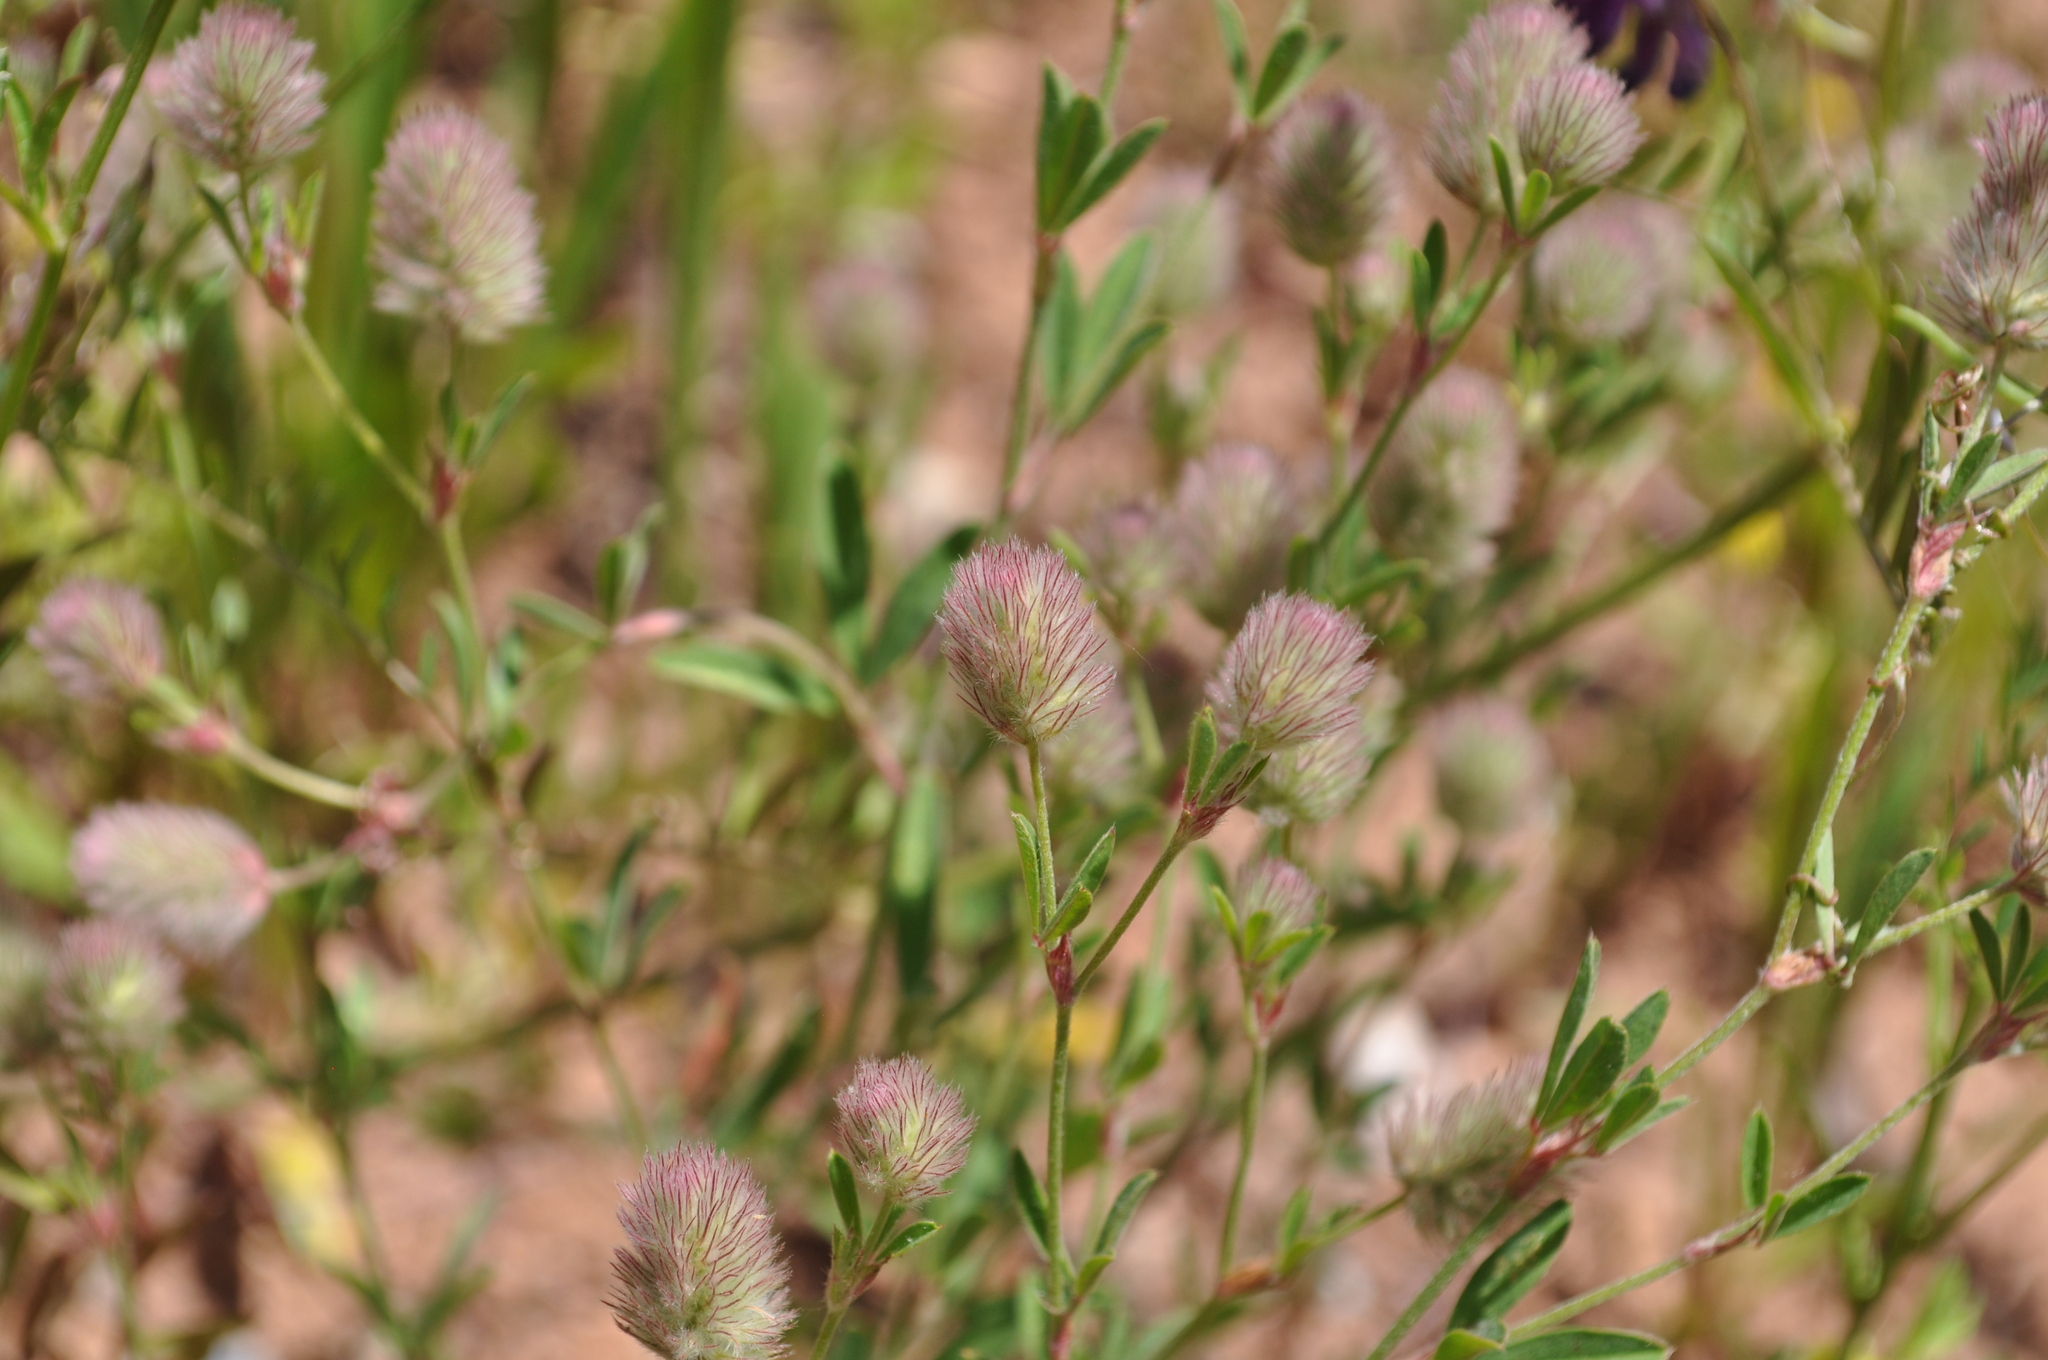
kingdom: Plantae
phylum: Tracheophyta
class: Magnoliopsida
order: Fabales
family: Fabaceae
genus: Trifolium
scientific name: Trifolium arvense
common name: Hare's-foot clover
